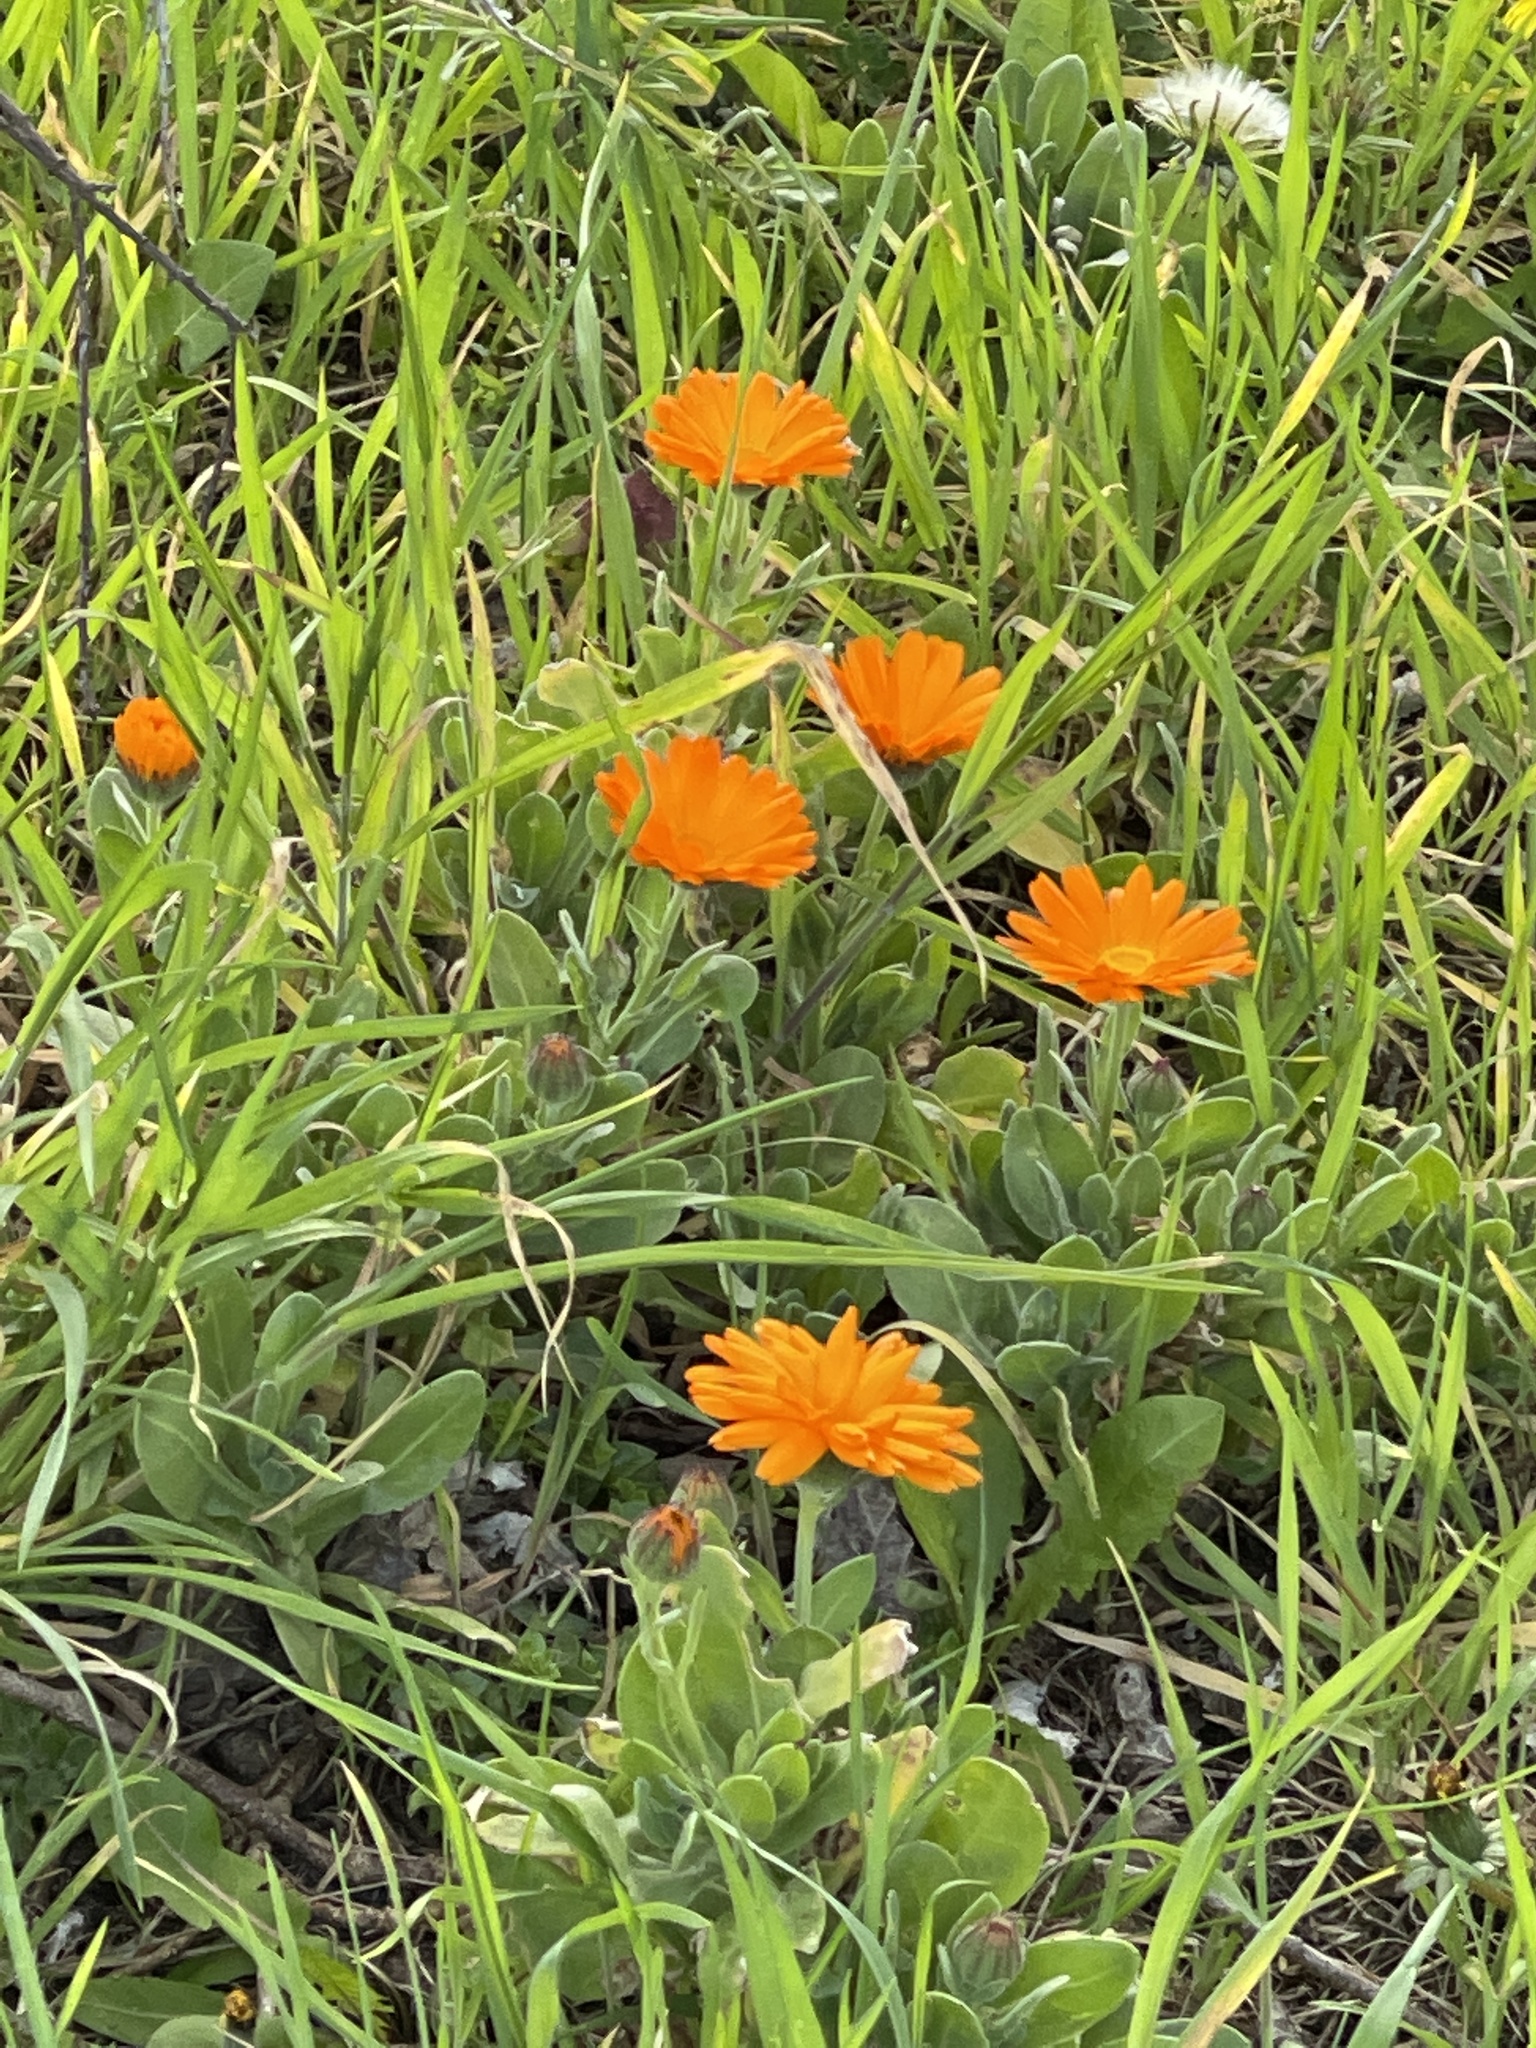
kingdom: Plantae
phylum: Tracheophyta
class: Magnoliopsida
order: Asterales
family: Asteraceae
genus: Calendula
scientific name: Calendula officinalis
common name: Pot marigold
